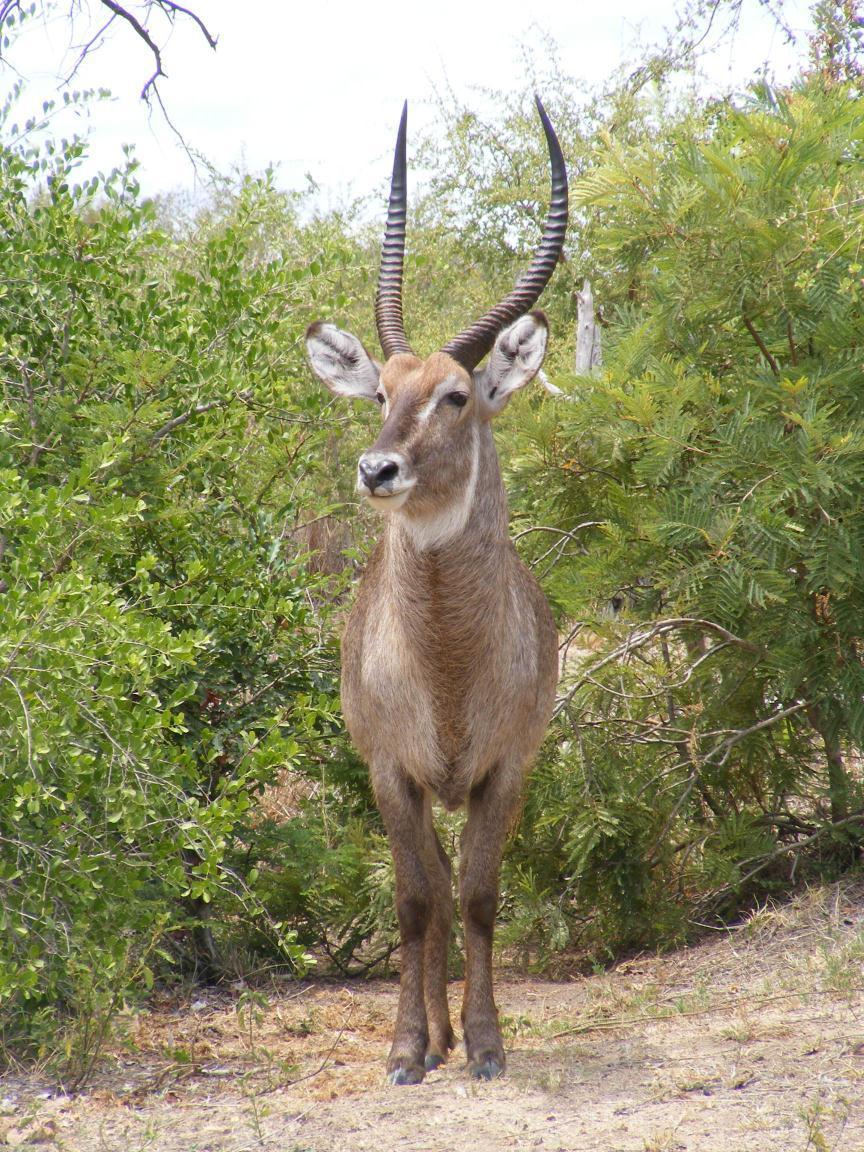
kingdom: Animalia
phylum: Chordata
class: Mammalia
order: Artiodactyla
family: Bovidae
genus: Kobus
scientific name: Kobus ellipsiprymnus
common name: Waterbuck
